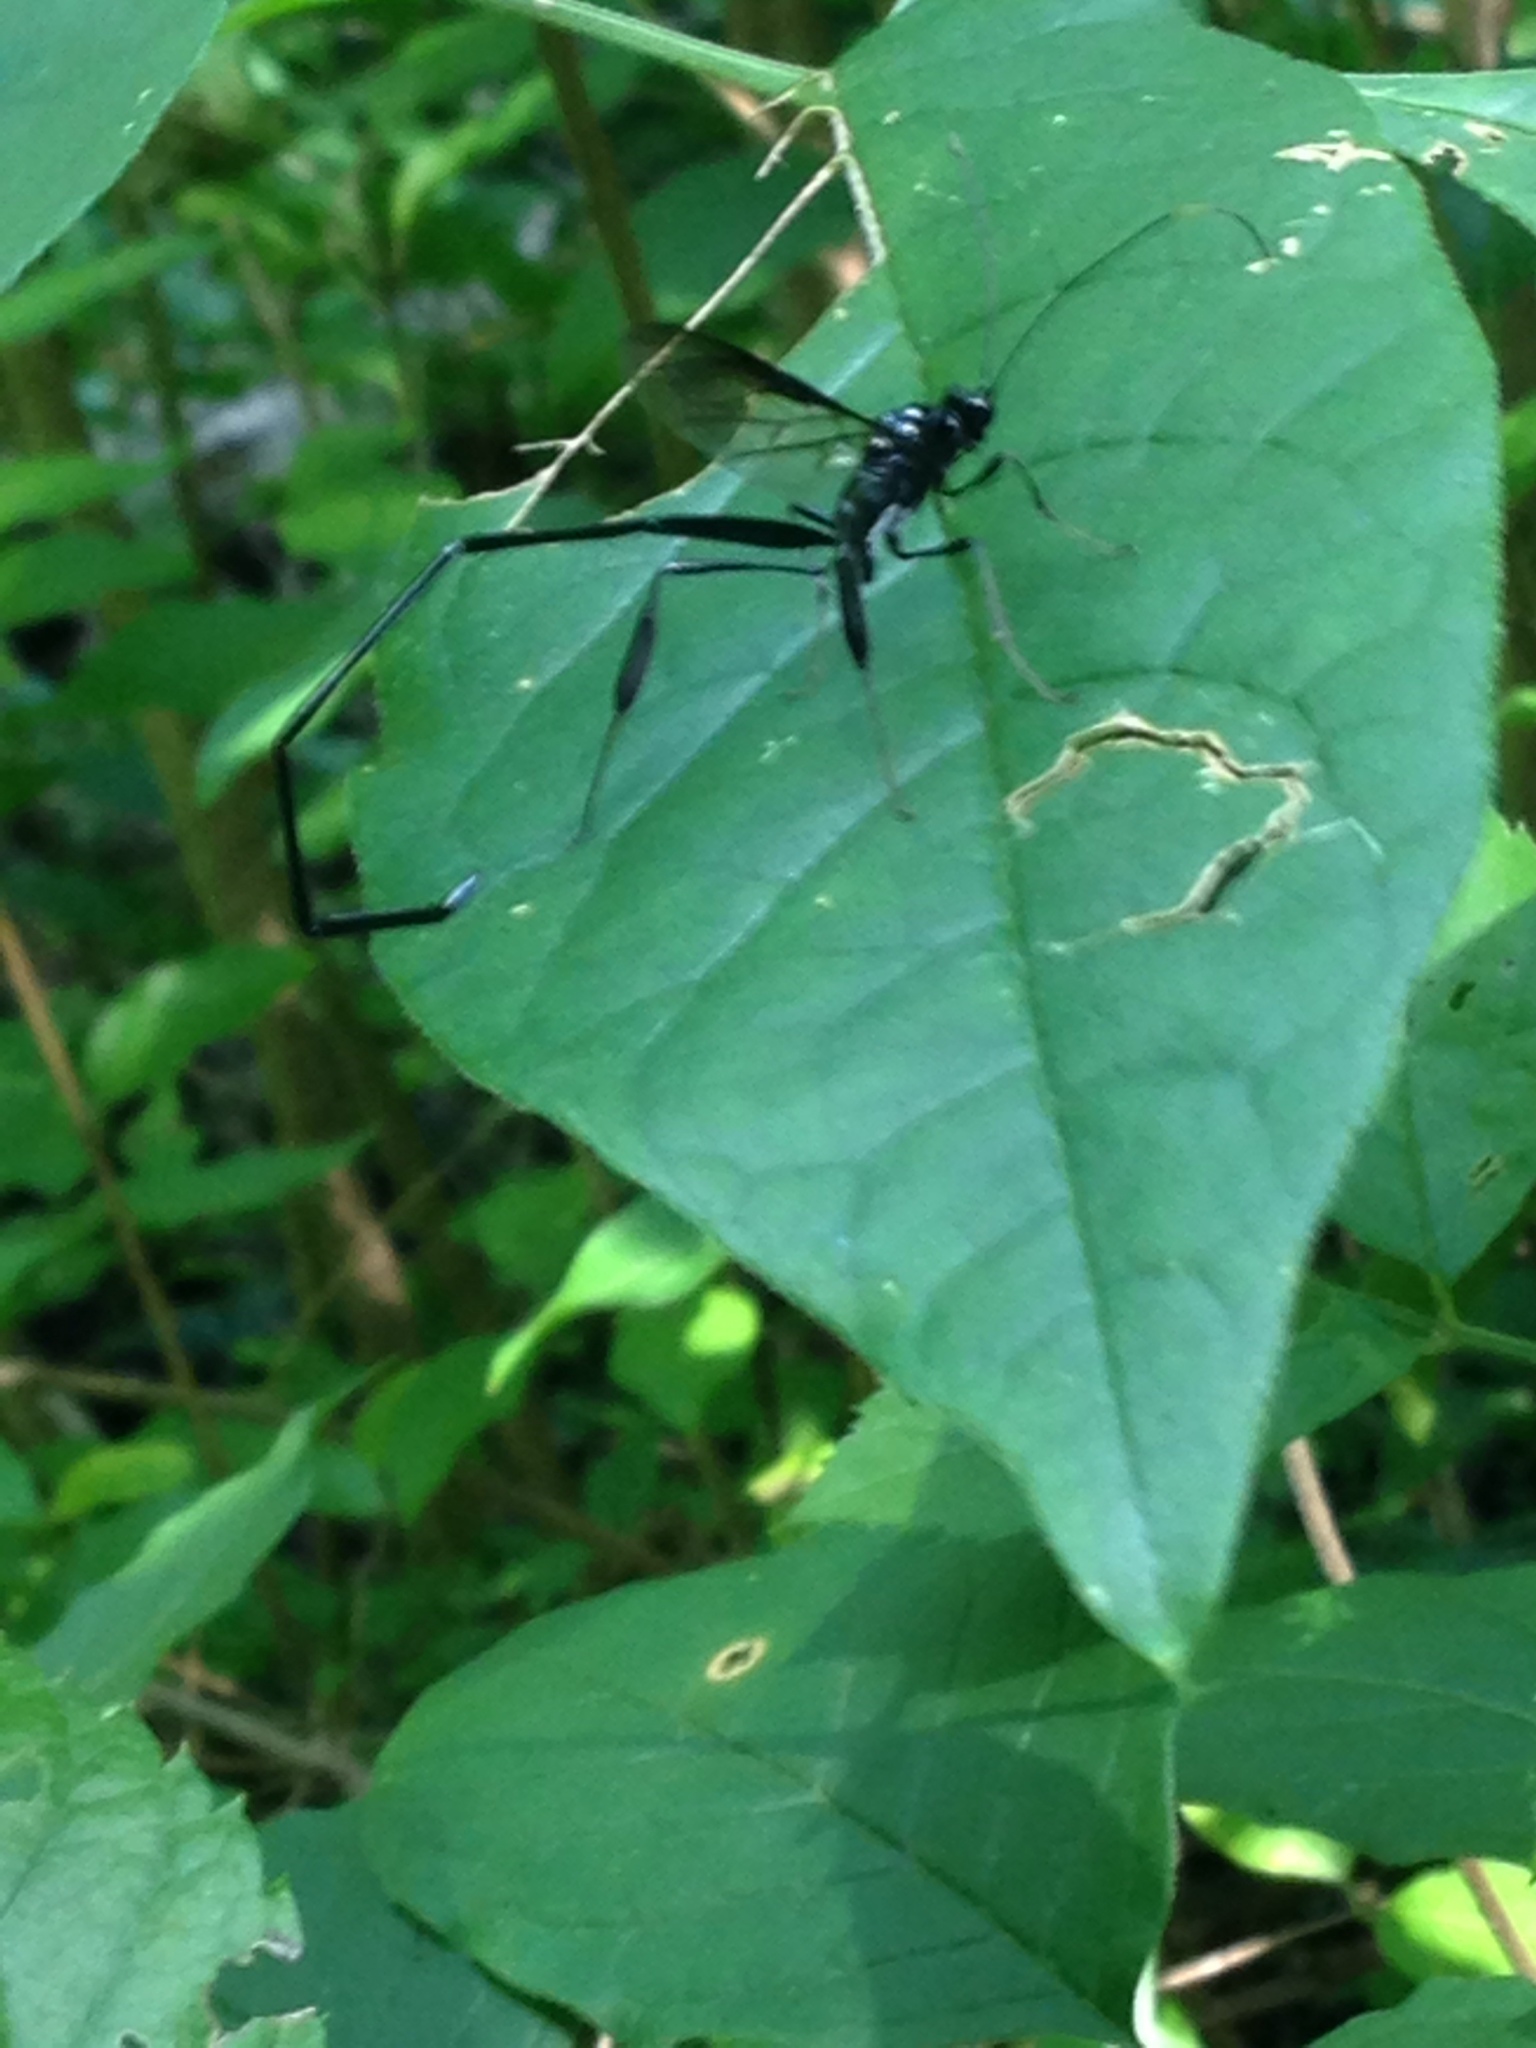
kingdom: Animalia
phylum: Arthropoda
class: Insecta
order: Hymenoptera
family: Pelecinidae
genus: Pelecinus
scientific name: Pelecinus polyturator
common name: American pelecinid wasp
